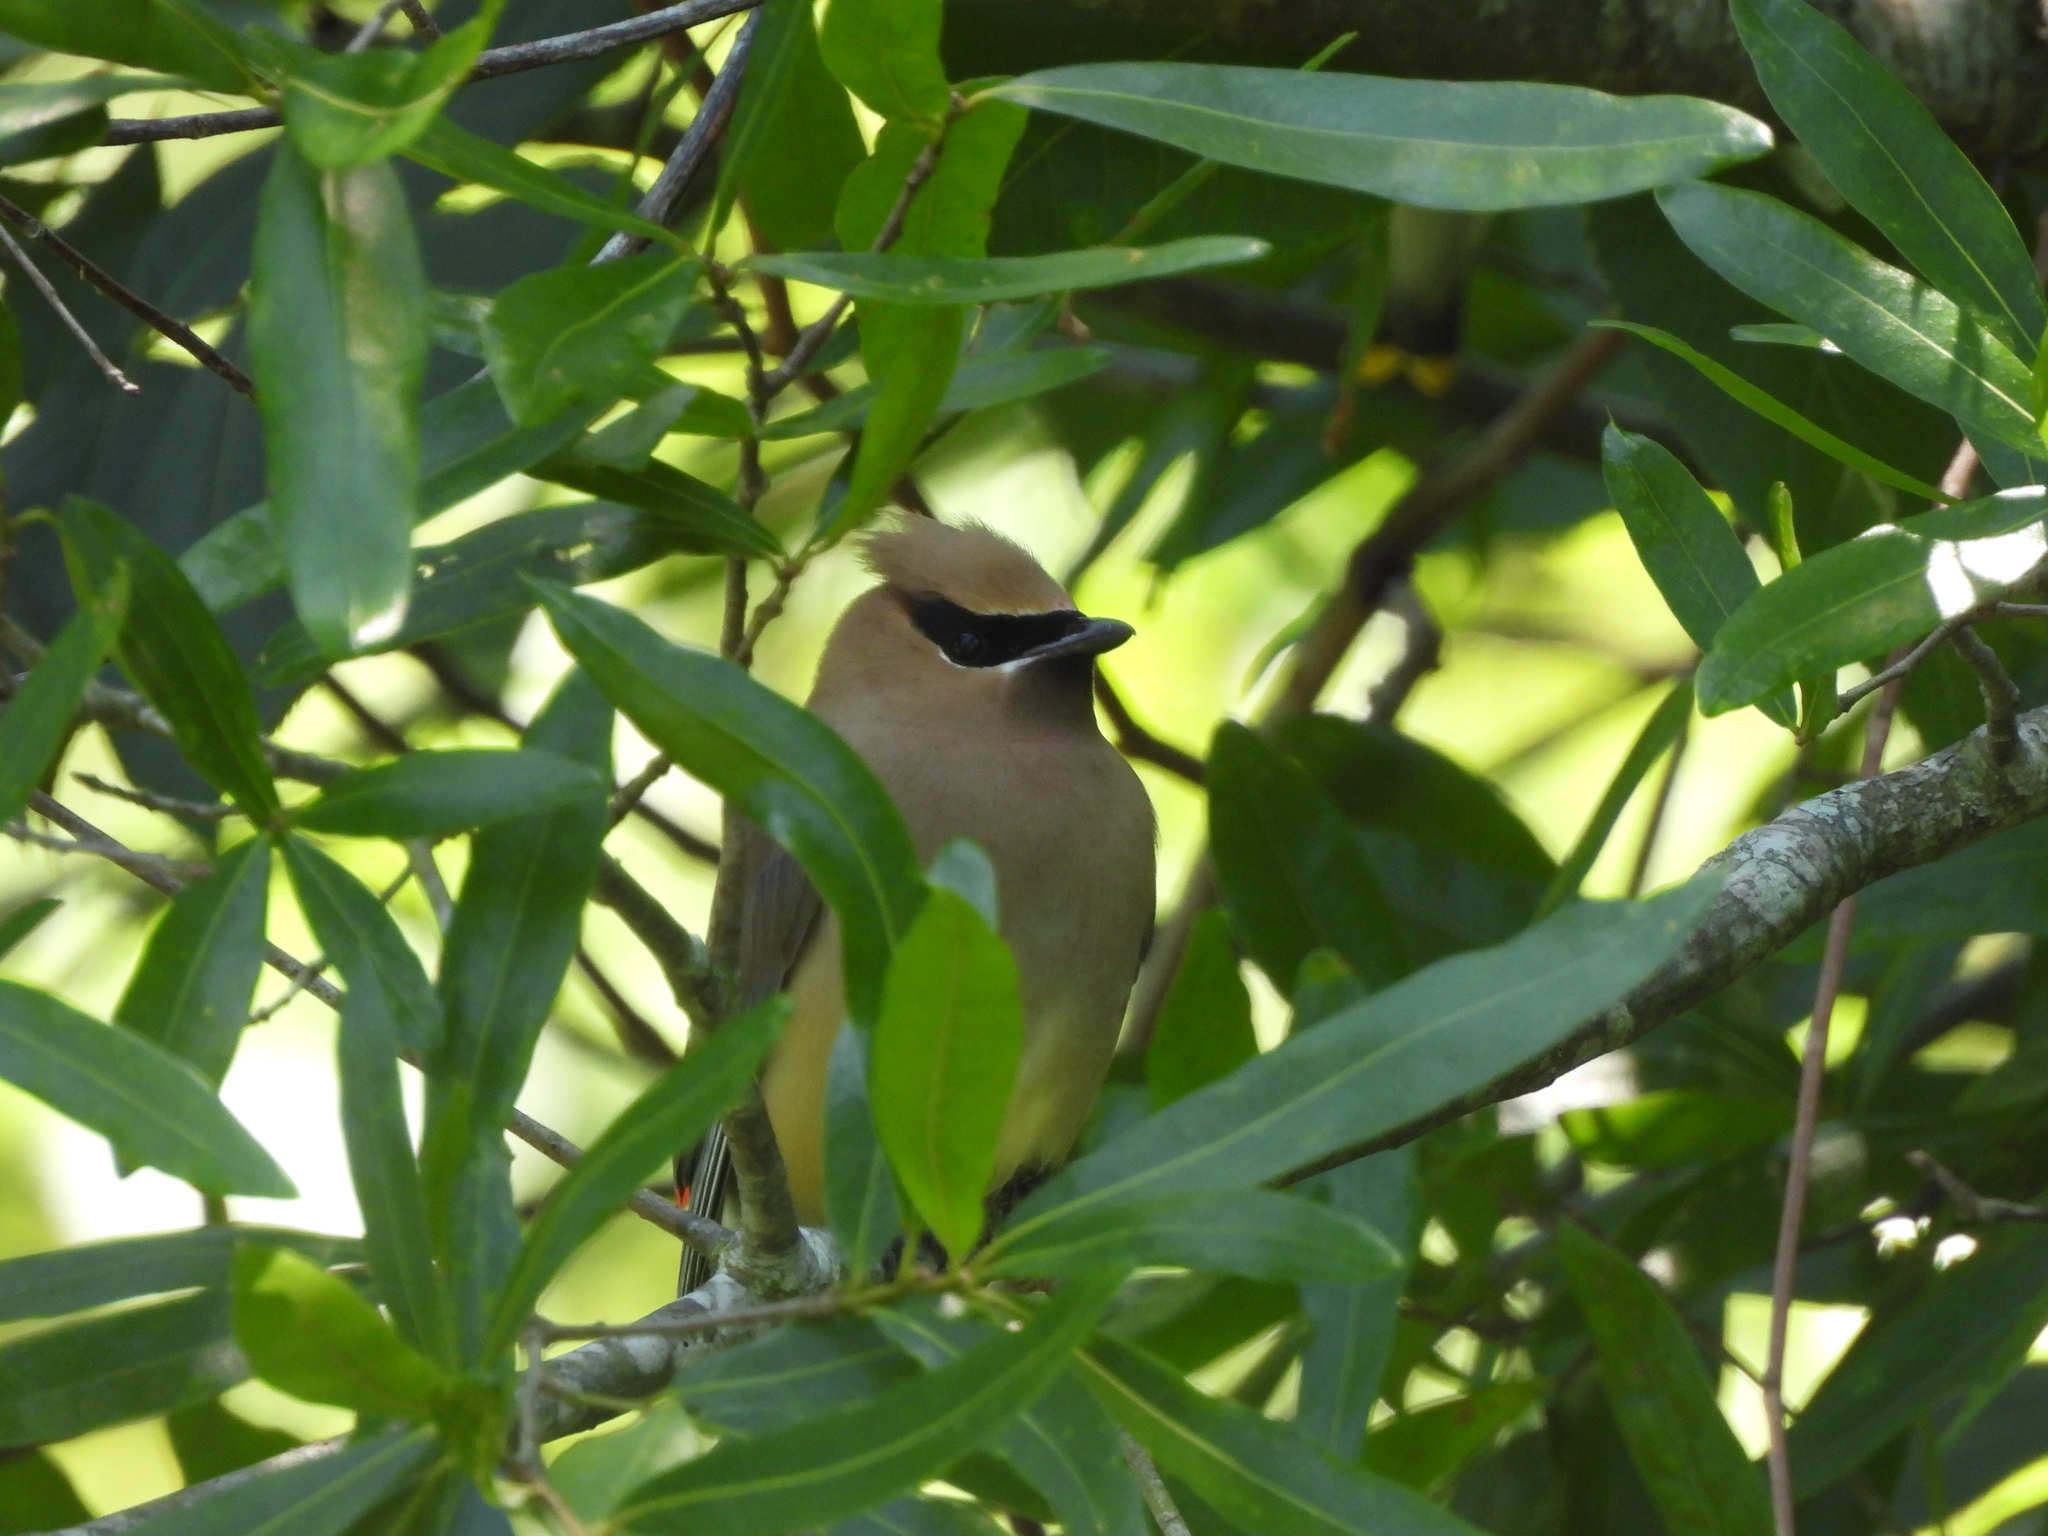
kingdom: Animalia
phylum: Chordata
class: Aves
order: Passeriformes
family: Bombycillidae
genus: Bombycilla
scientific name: Bombycilla cedrorum
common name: Cedar waxwing
